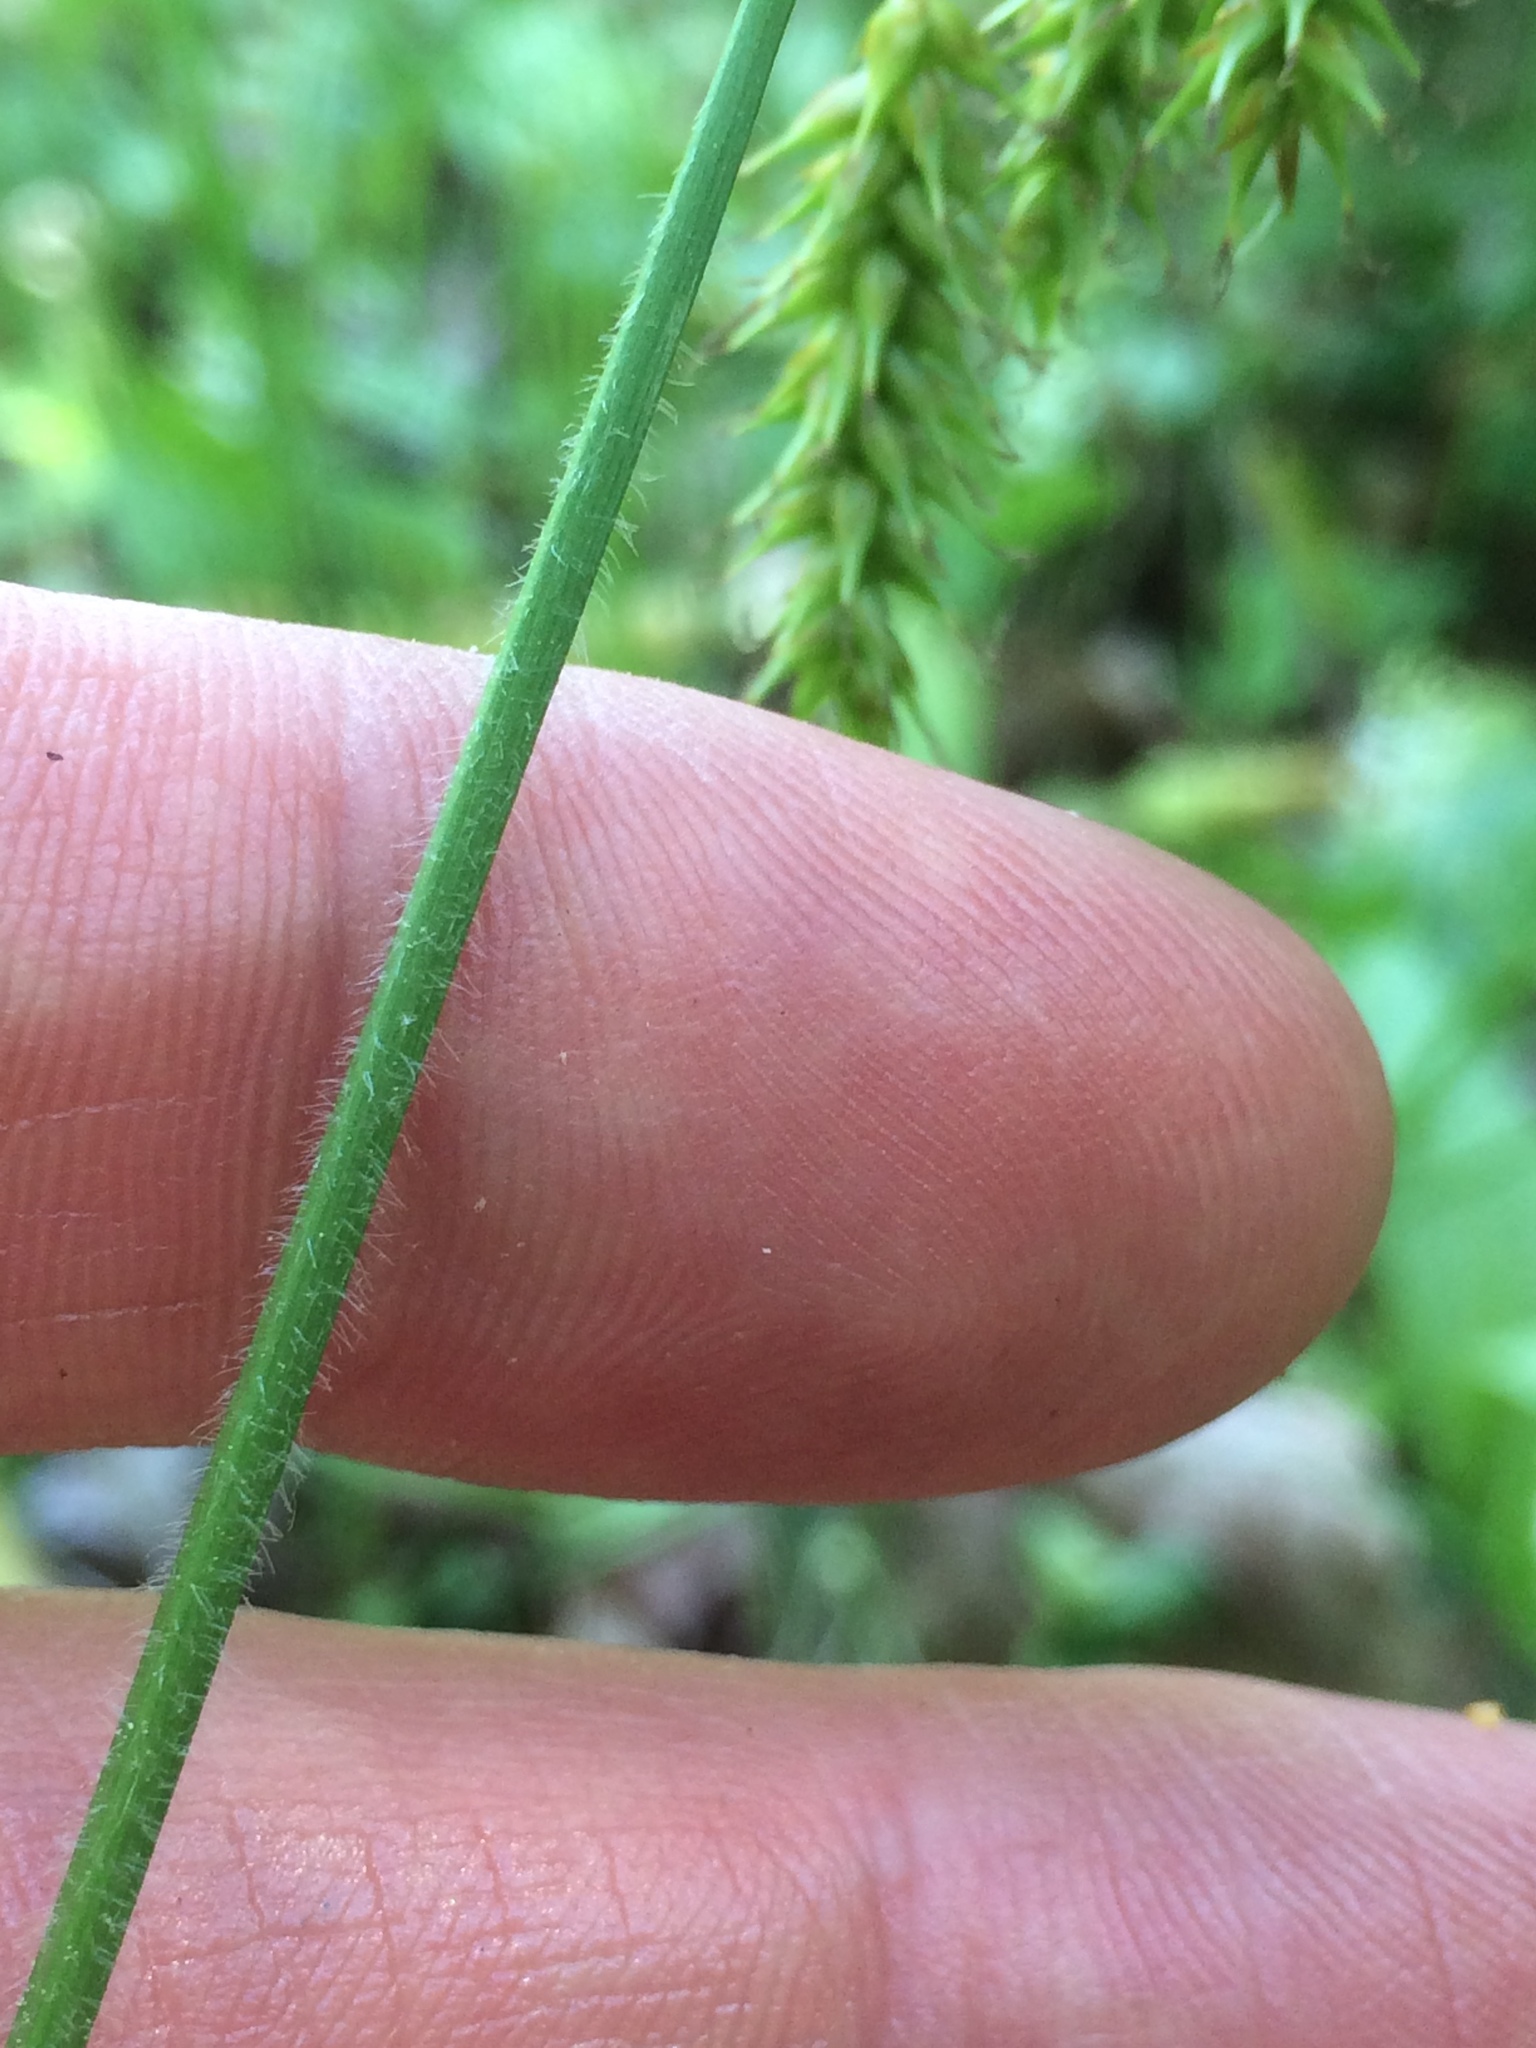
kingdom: Plantae
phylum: Tracheophyta
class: Liliopsida
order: Poales
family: Cyperaceae
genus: Carex
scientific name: Carex castanea
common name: Chestnut sedge
